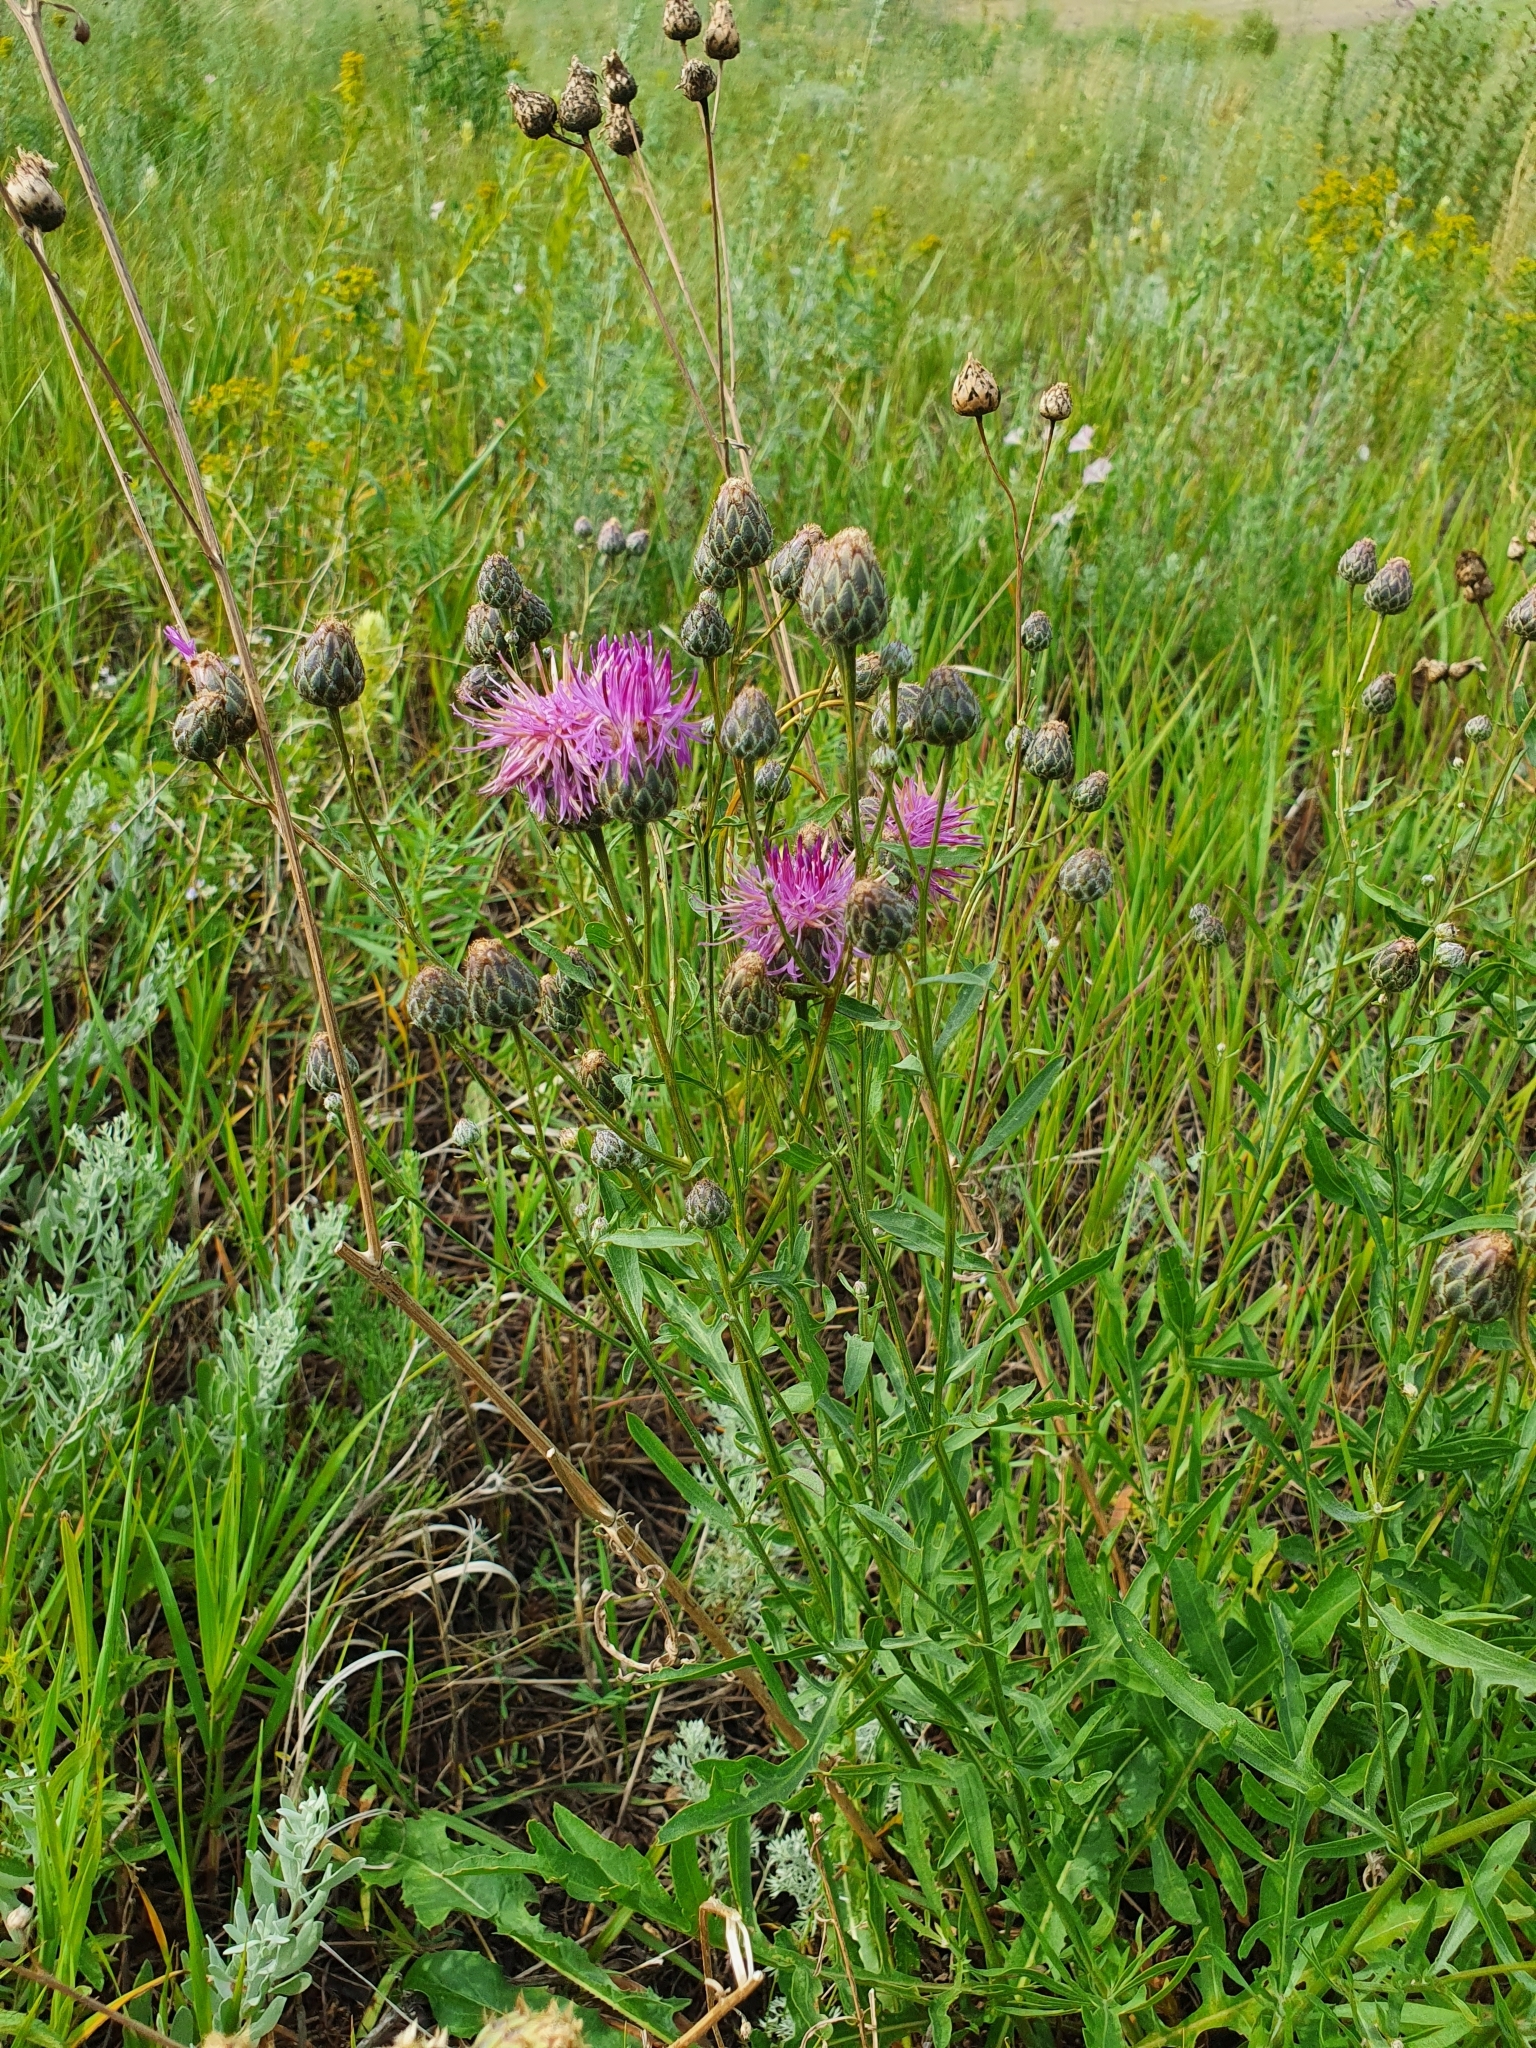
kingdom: Plantae
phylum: Tracheophyta
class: Magnoliopsida
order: Asterales
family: Asteraceae
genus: Centaurea
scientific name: Centaurea scabiosa
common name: Greater knapweed
